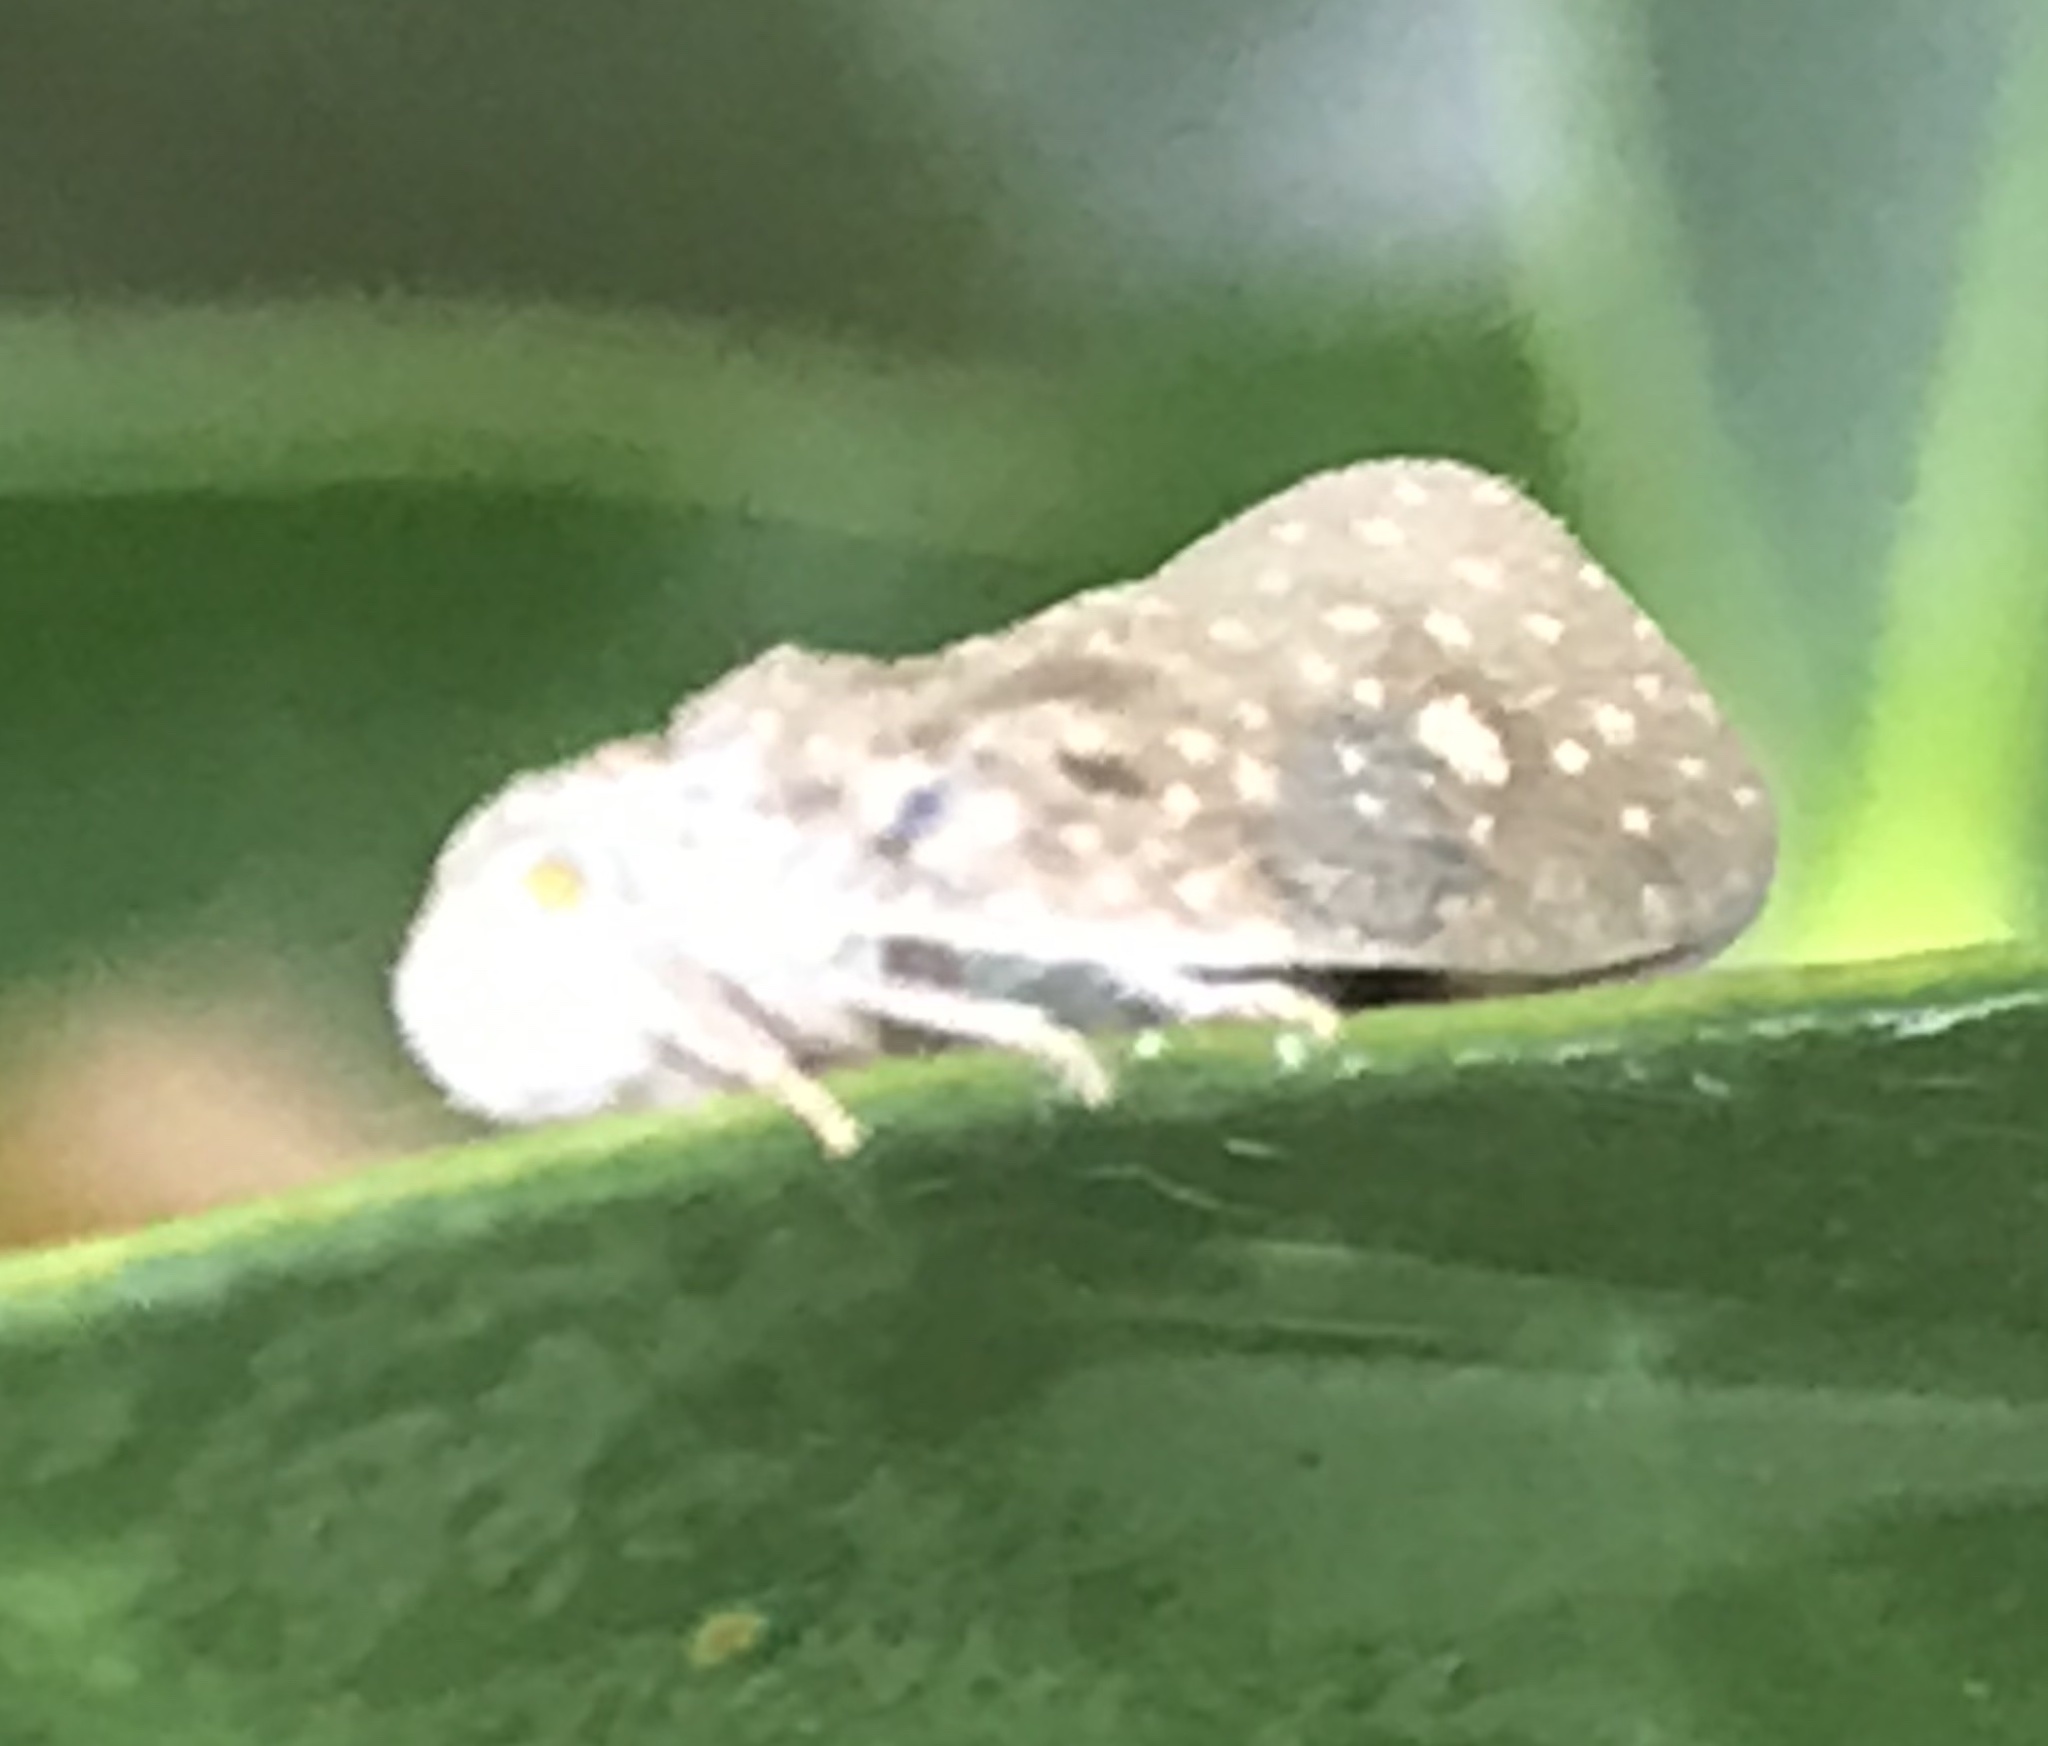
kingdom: Animalia
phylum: Arthropoda
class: Insecta
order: Hemiptera
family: Flatidae
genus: Metcalfa
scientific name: Metcalfa pruinosa
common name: Citrus flatid planthopper
